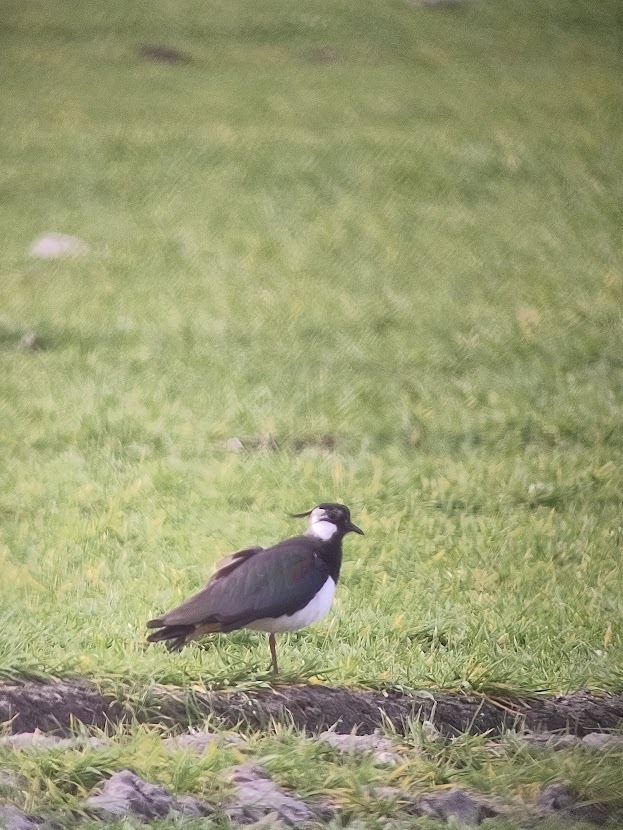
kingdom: Animalia
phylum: Chordata
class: Aves
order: Charadriiformes
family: Charadriidae
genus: Vanellus
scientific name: Vanellus vanellus
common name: Northern lapwing
